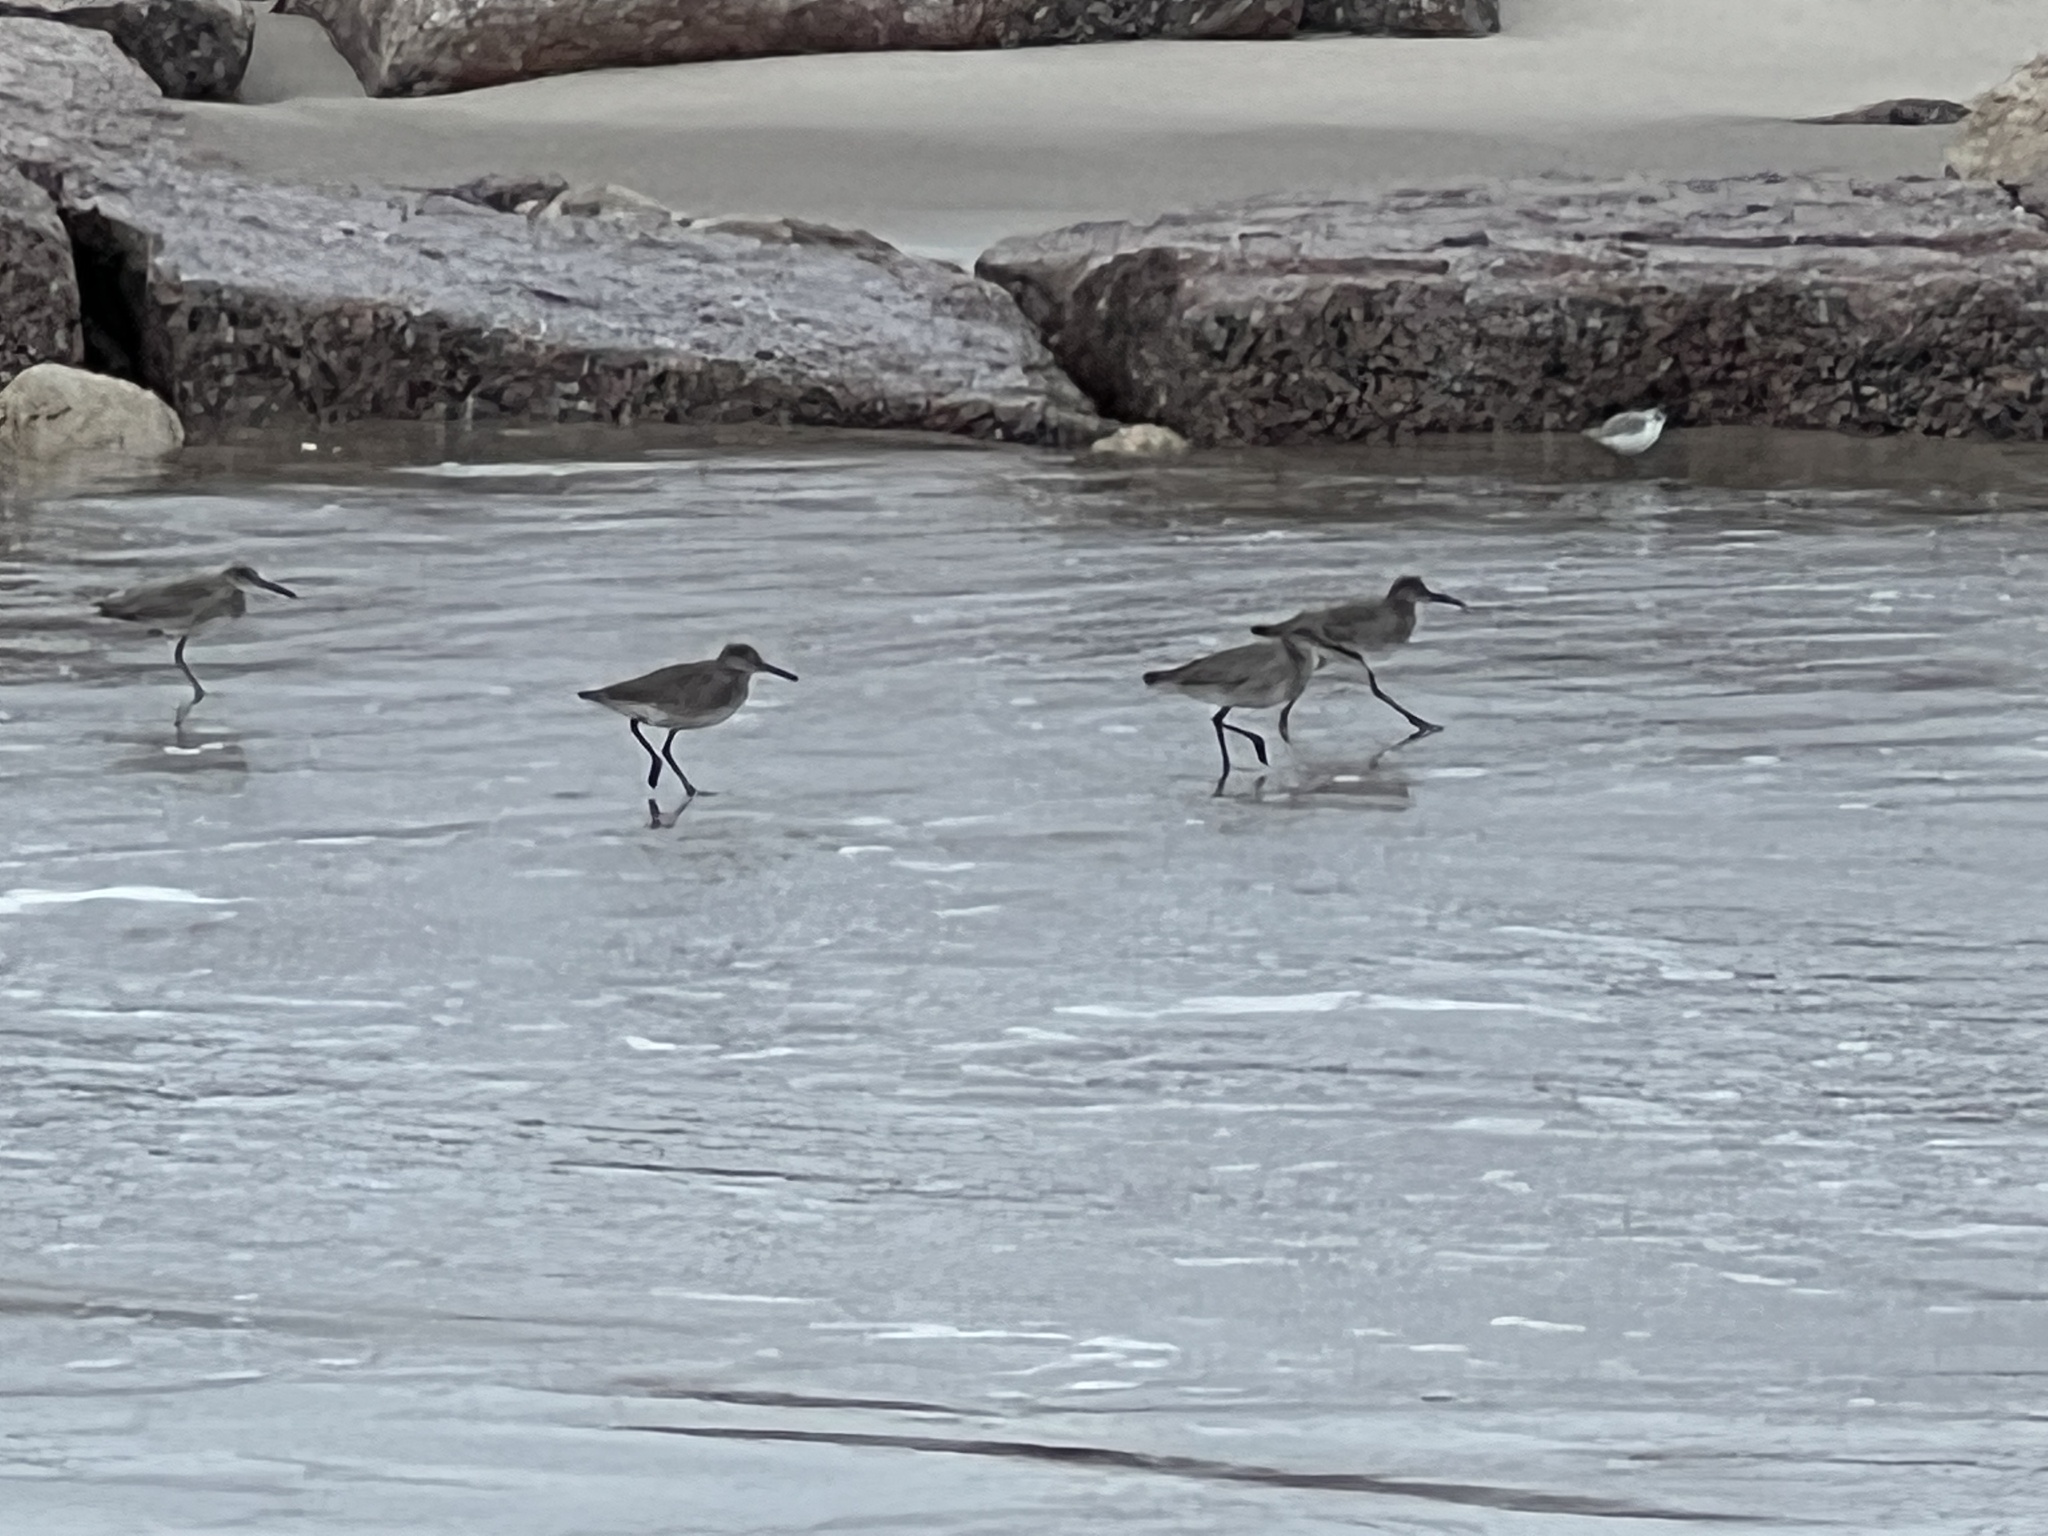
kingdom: Animalia
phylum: Chordata
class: Aves
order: Charadriiformes
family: Scolopacidae
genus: Tringa
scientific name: Tringa semipalmata
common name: Willet
